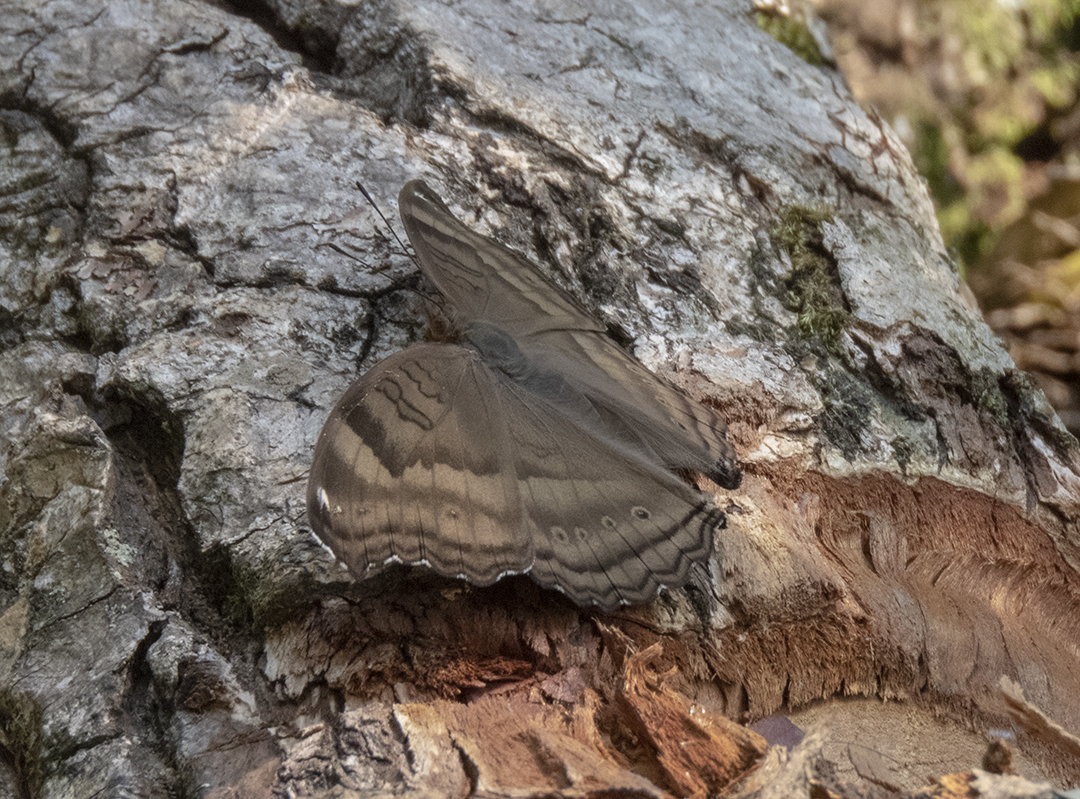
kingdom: Animalia
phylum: Arthropoda
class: Insecta
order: Lepidoptera
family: Nymphalidae
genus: Junonia
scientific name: Junonia iphita
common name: Chocolate pansy
